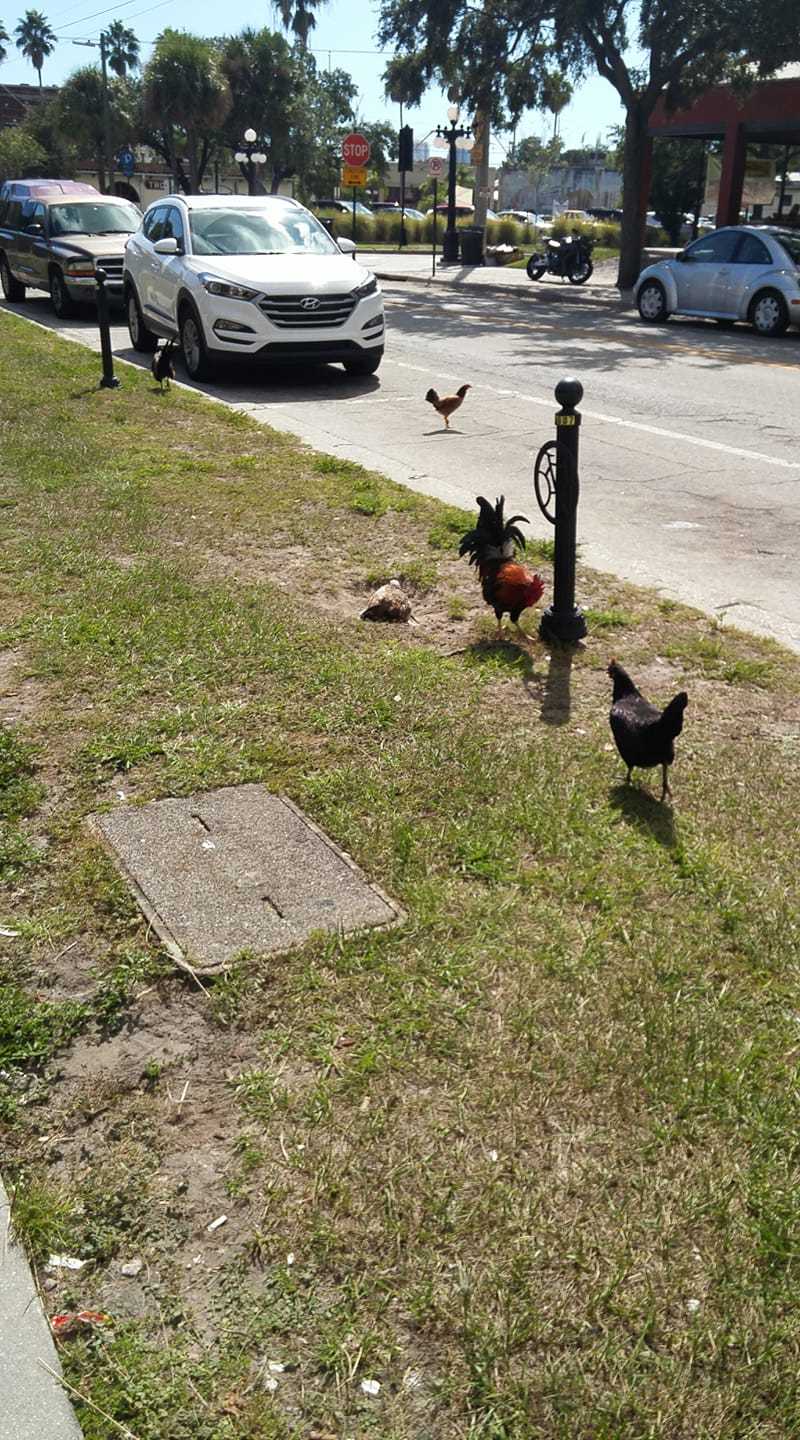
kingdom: Animalia
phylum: Chordata
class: Aves
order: Galliformes
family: Phasianidae
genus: Gallus
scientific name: Gallus gallus
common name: Red junglefowl
